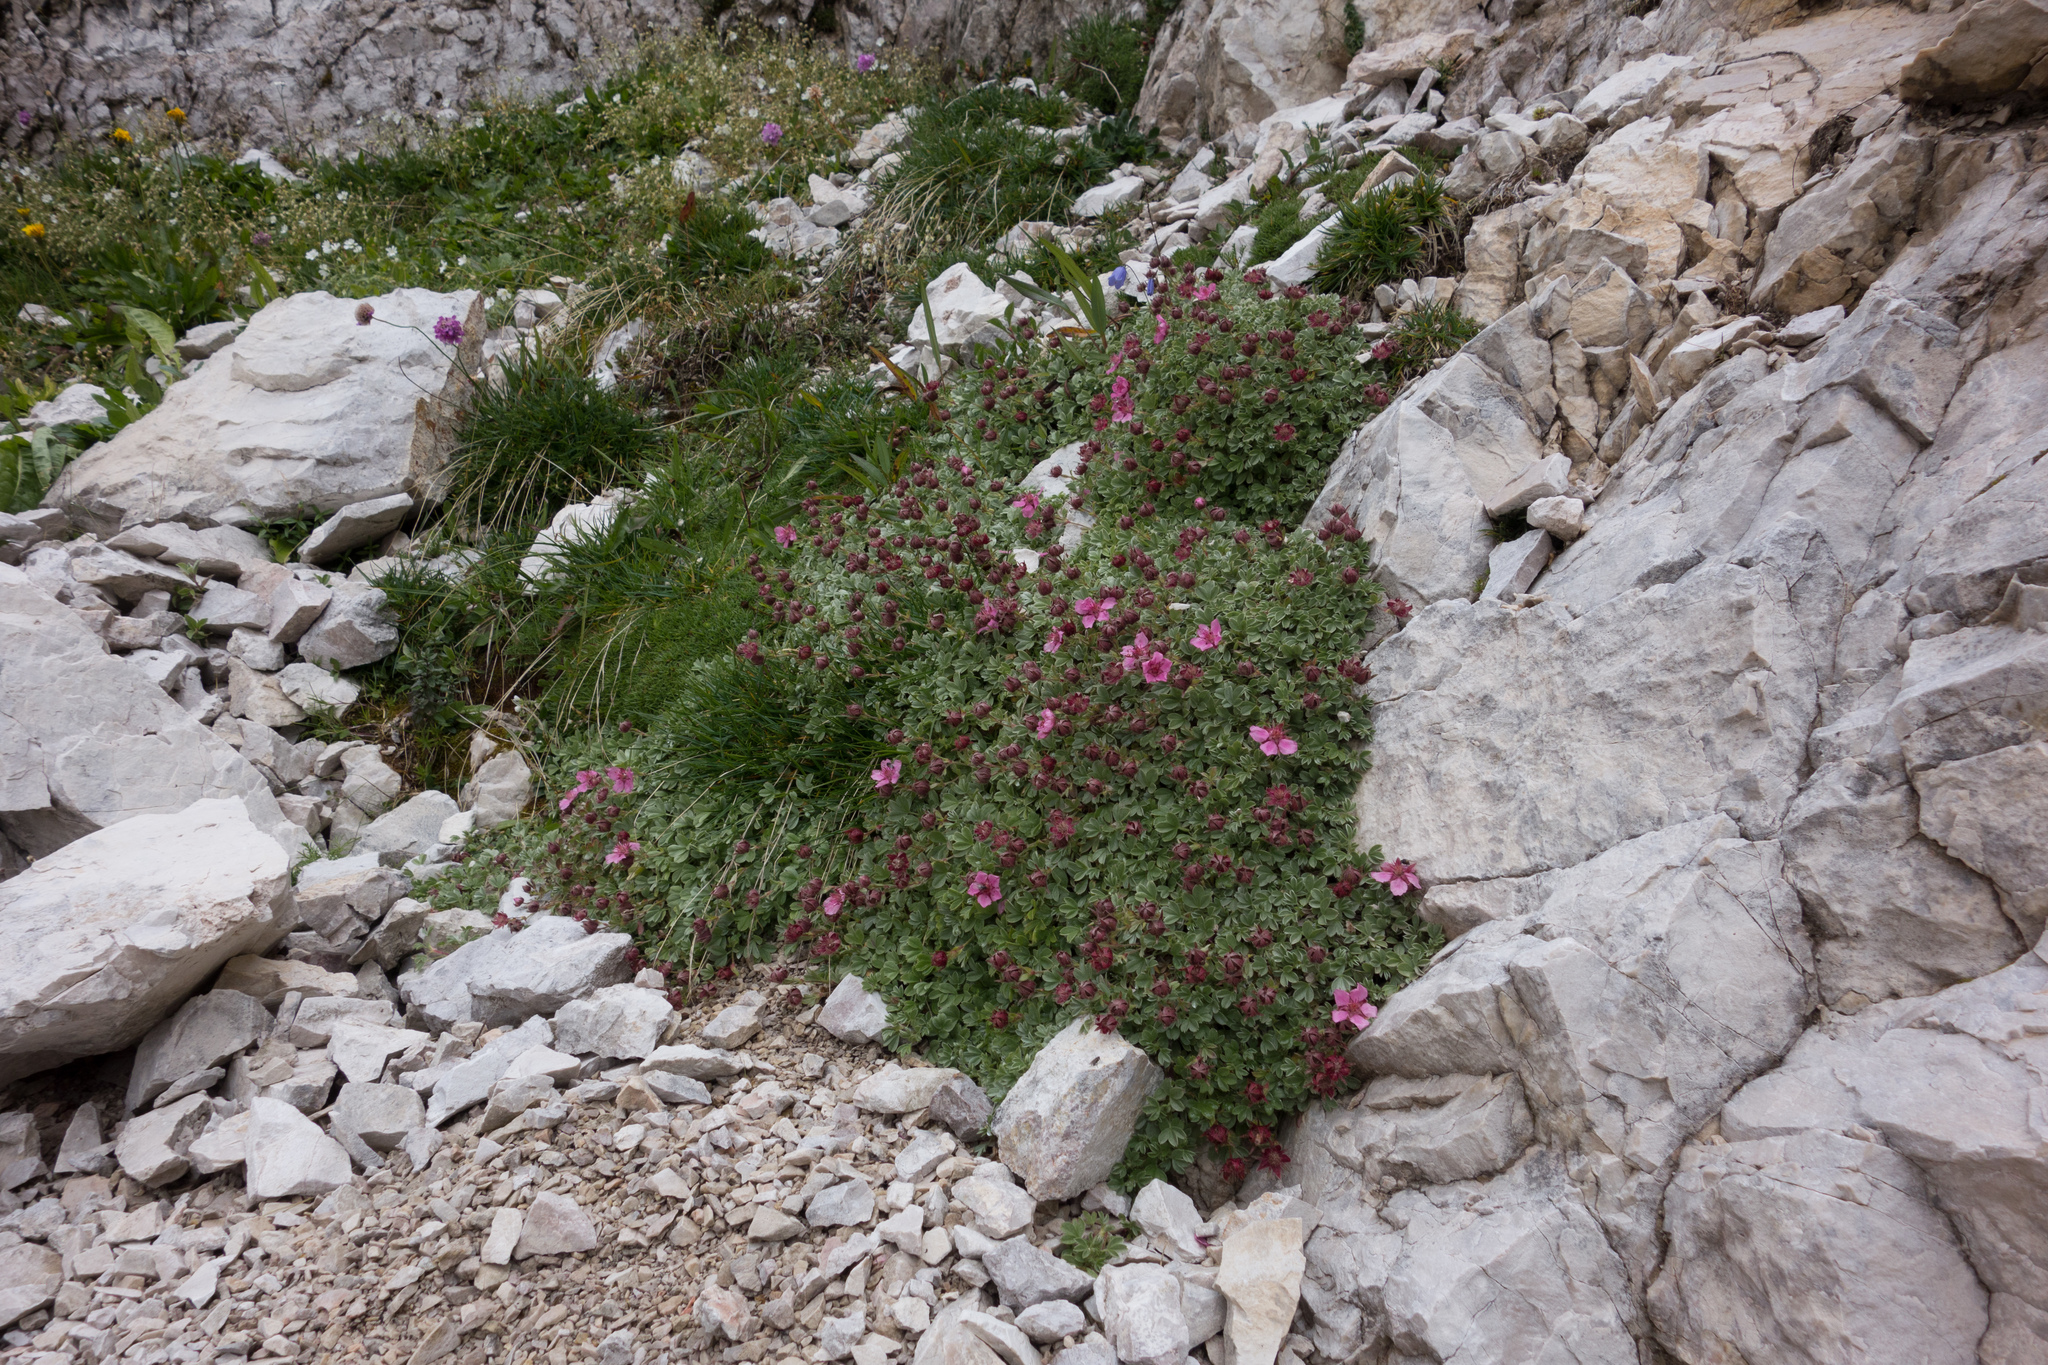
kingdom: Plantae
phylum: Tracheophyta
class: Magnoliopsida
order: Rosales
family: Rosaceae
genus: Potentilla
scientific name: Potentilla nitida
